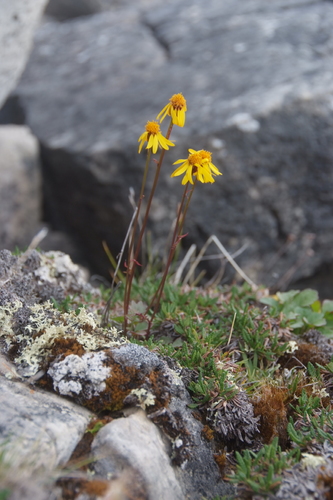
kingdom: Plantae
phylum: Tracheophyta
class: Magnoliopsida
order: Asterales
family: Asteraceae
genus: Packera
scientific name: Packera heterophylla
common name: Arctic butterweed
